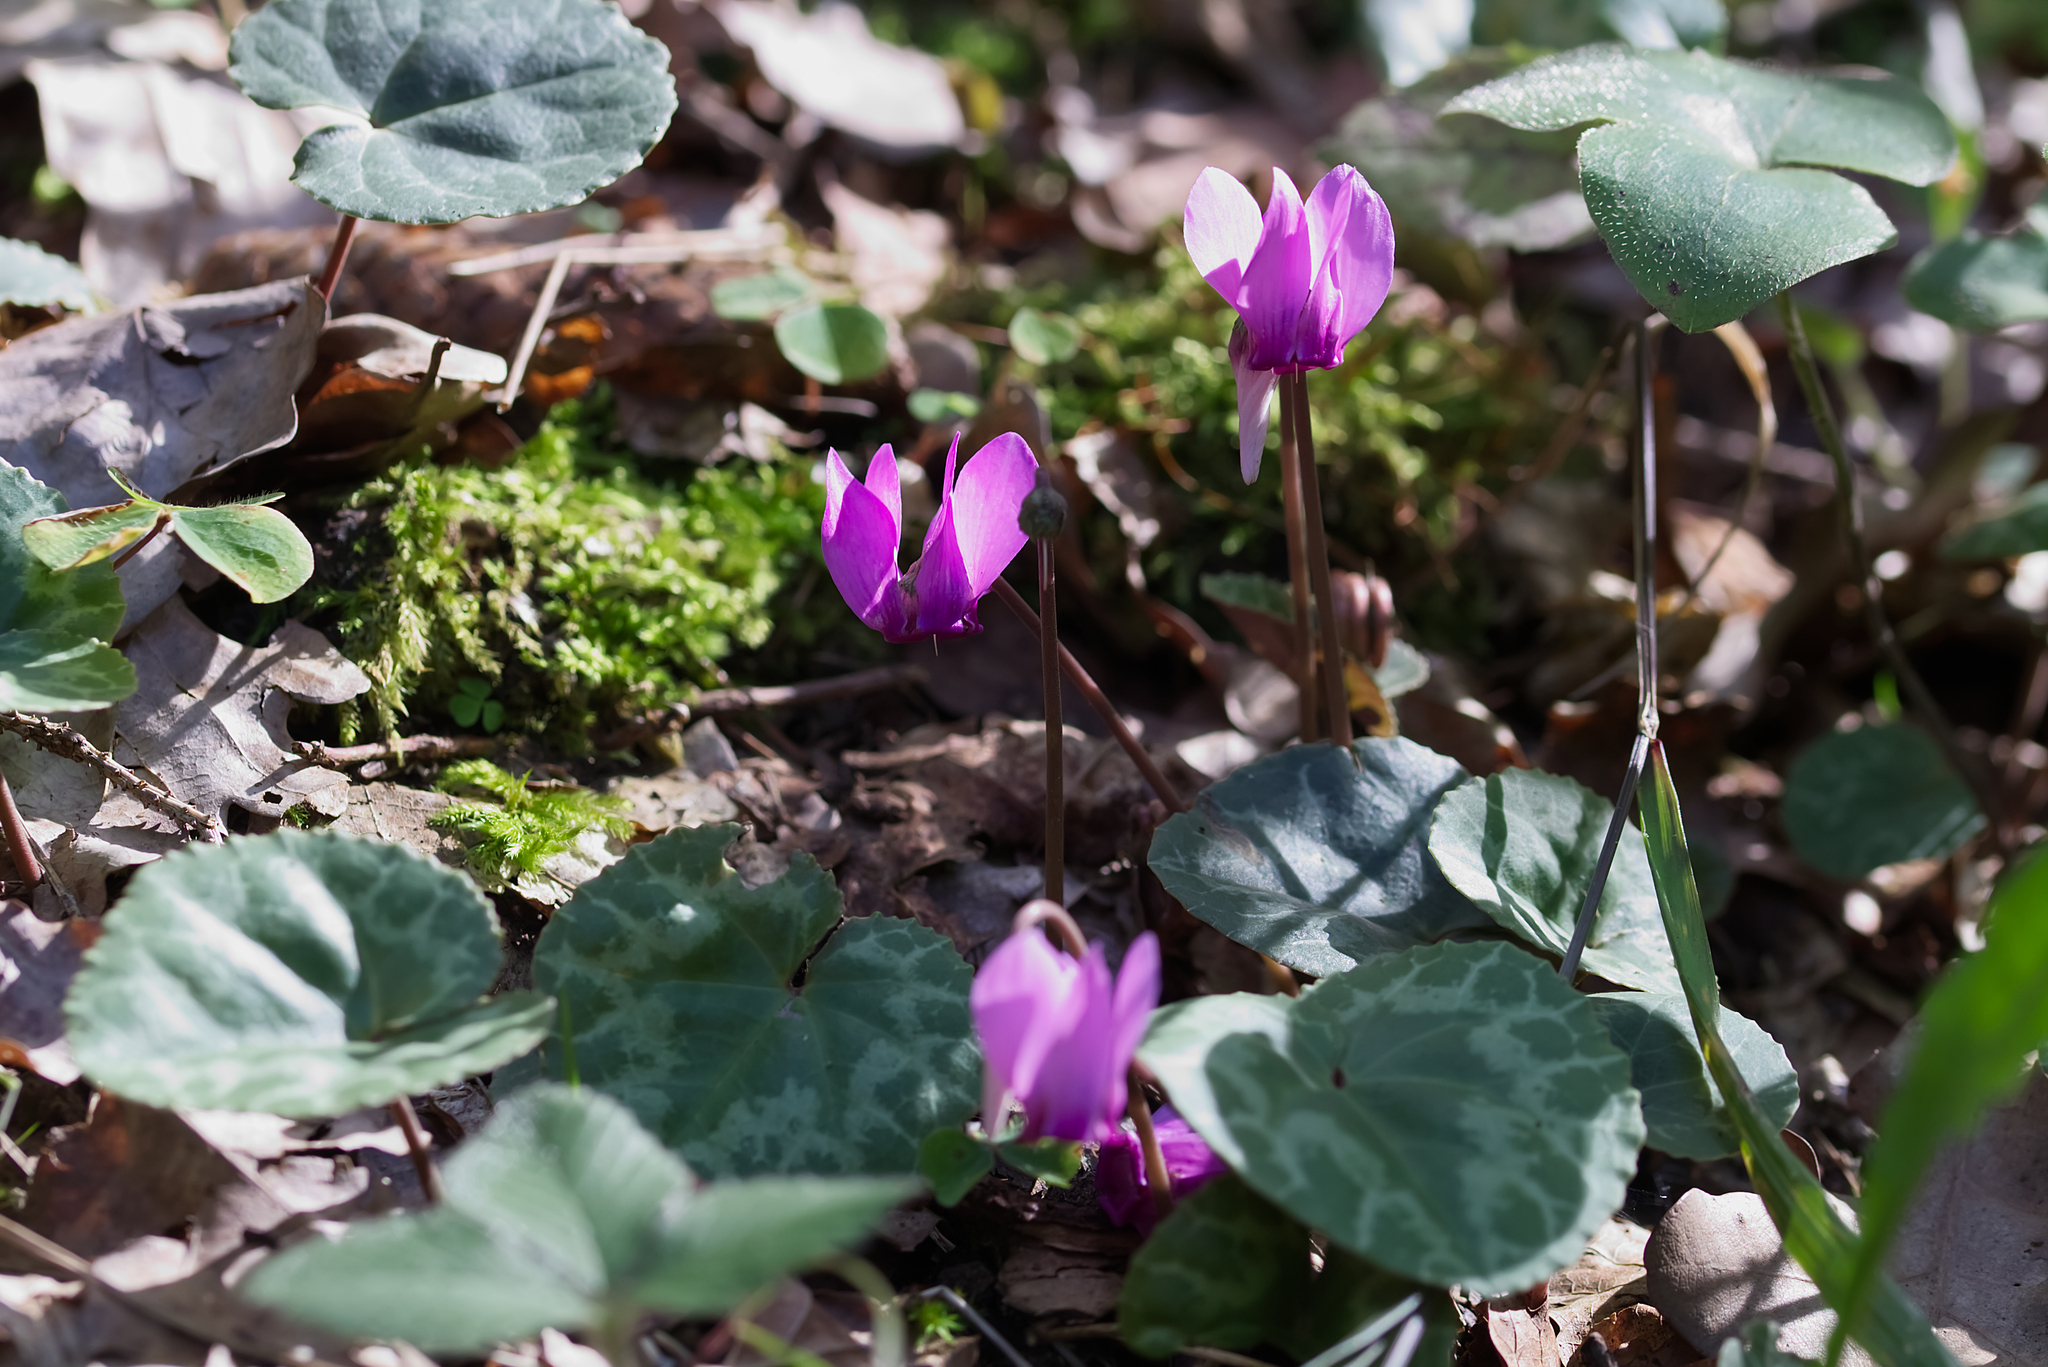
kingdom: Plantae
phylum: Tracheophyta
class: Magnoliopsida
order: Ericales
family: Primulaceae
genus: Cyclamen
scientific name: Cyclamen purpurascens
